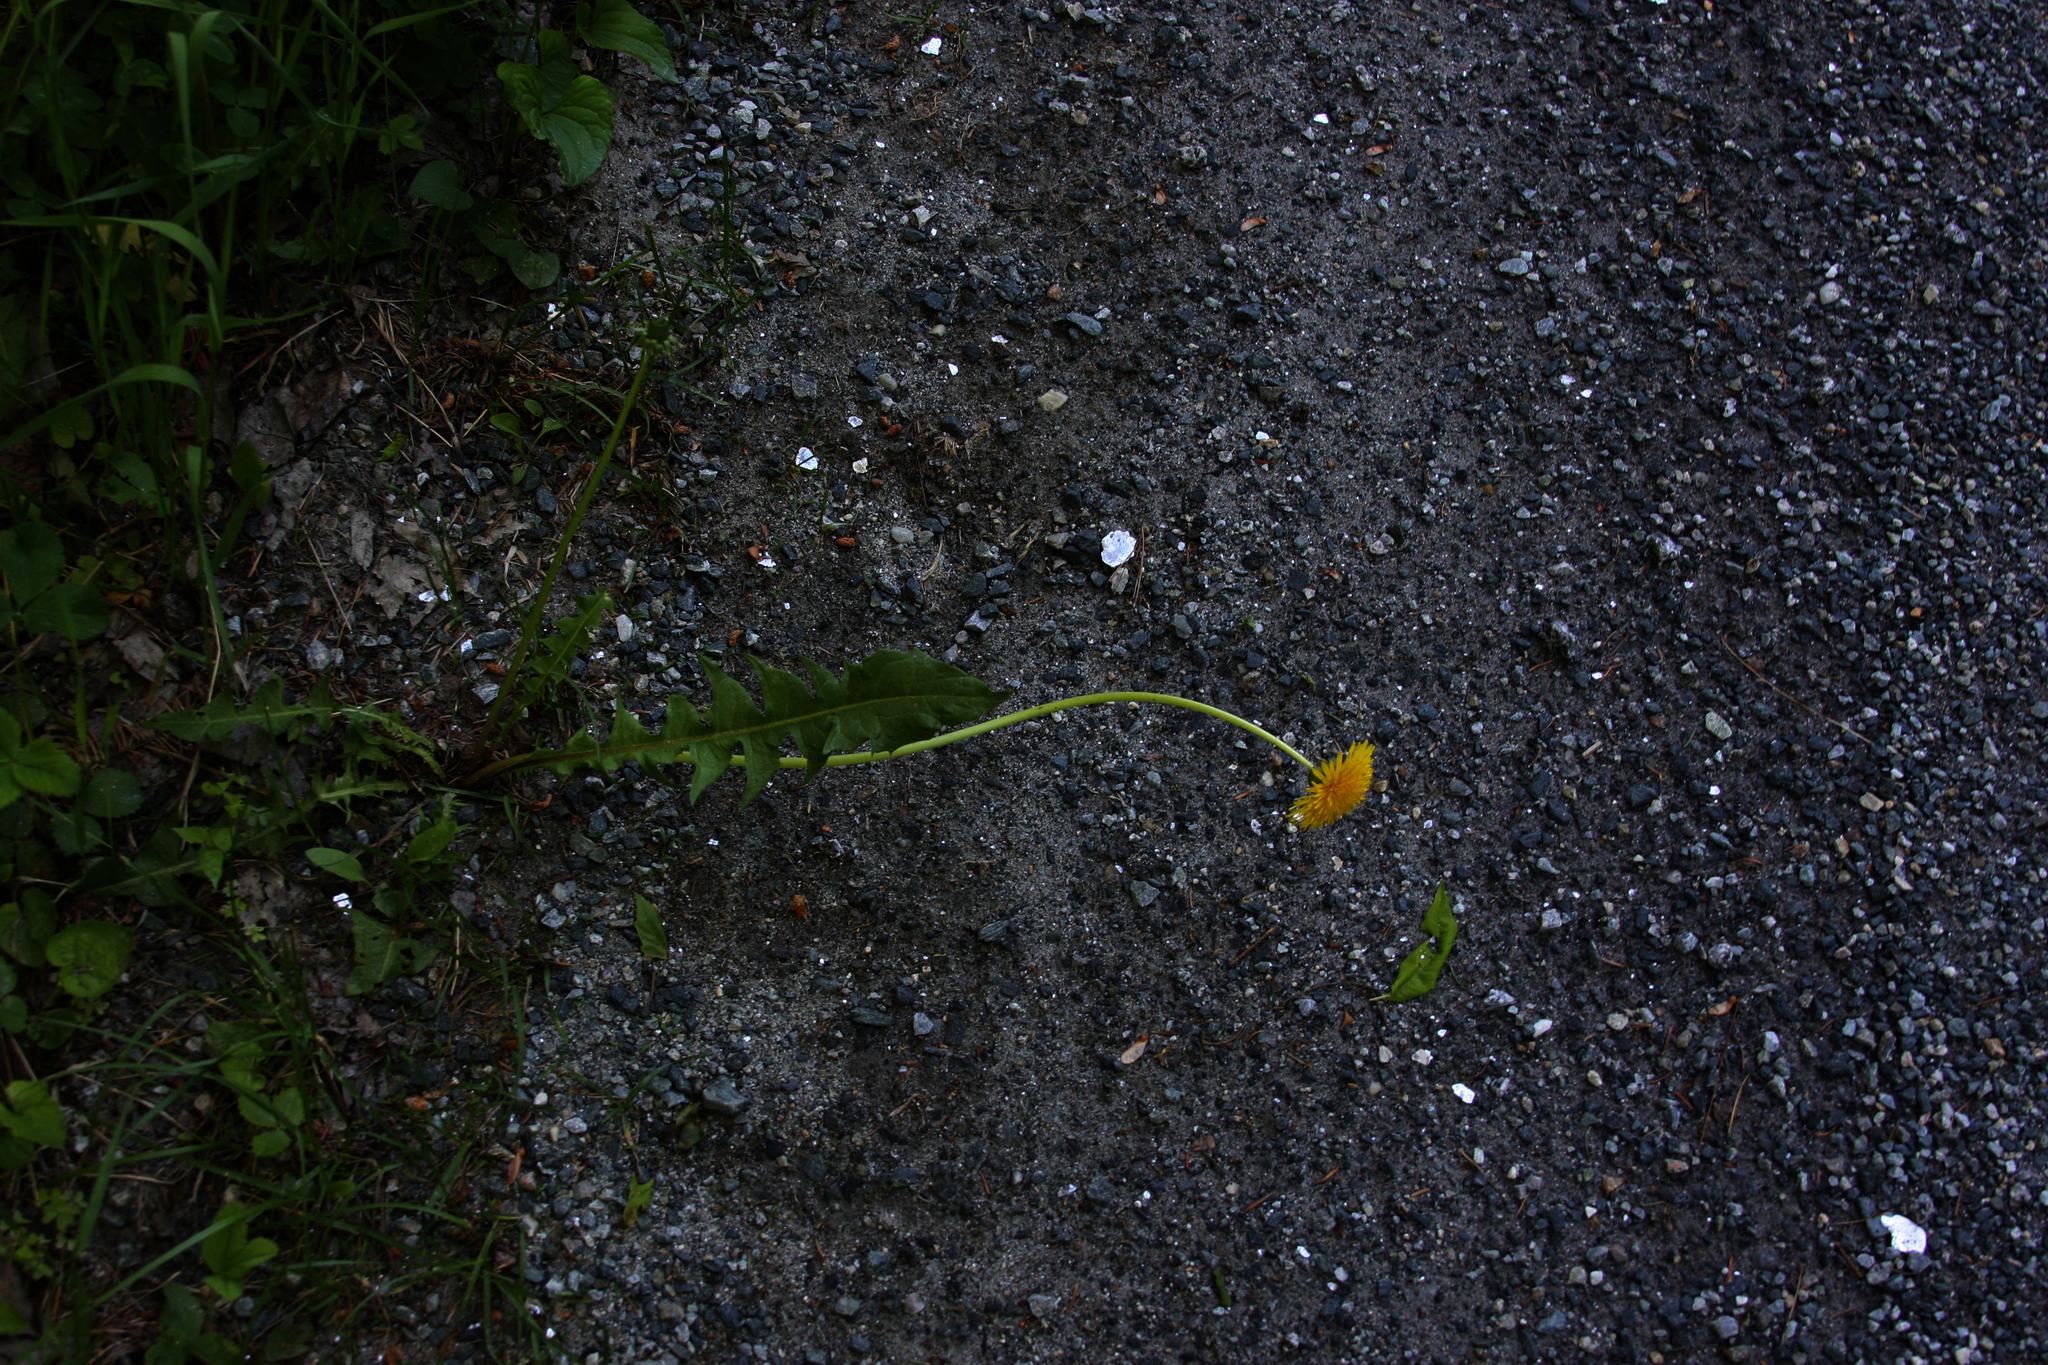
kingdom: Plantae
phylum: Tracheophyta
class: Magnoliopsida
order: Asterales
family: Asteraceae
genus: Taraxacum
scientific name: Taraxacum officinale
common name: Common dandelion
